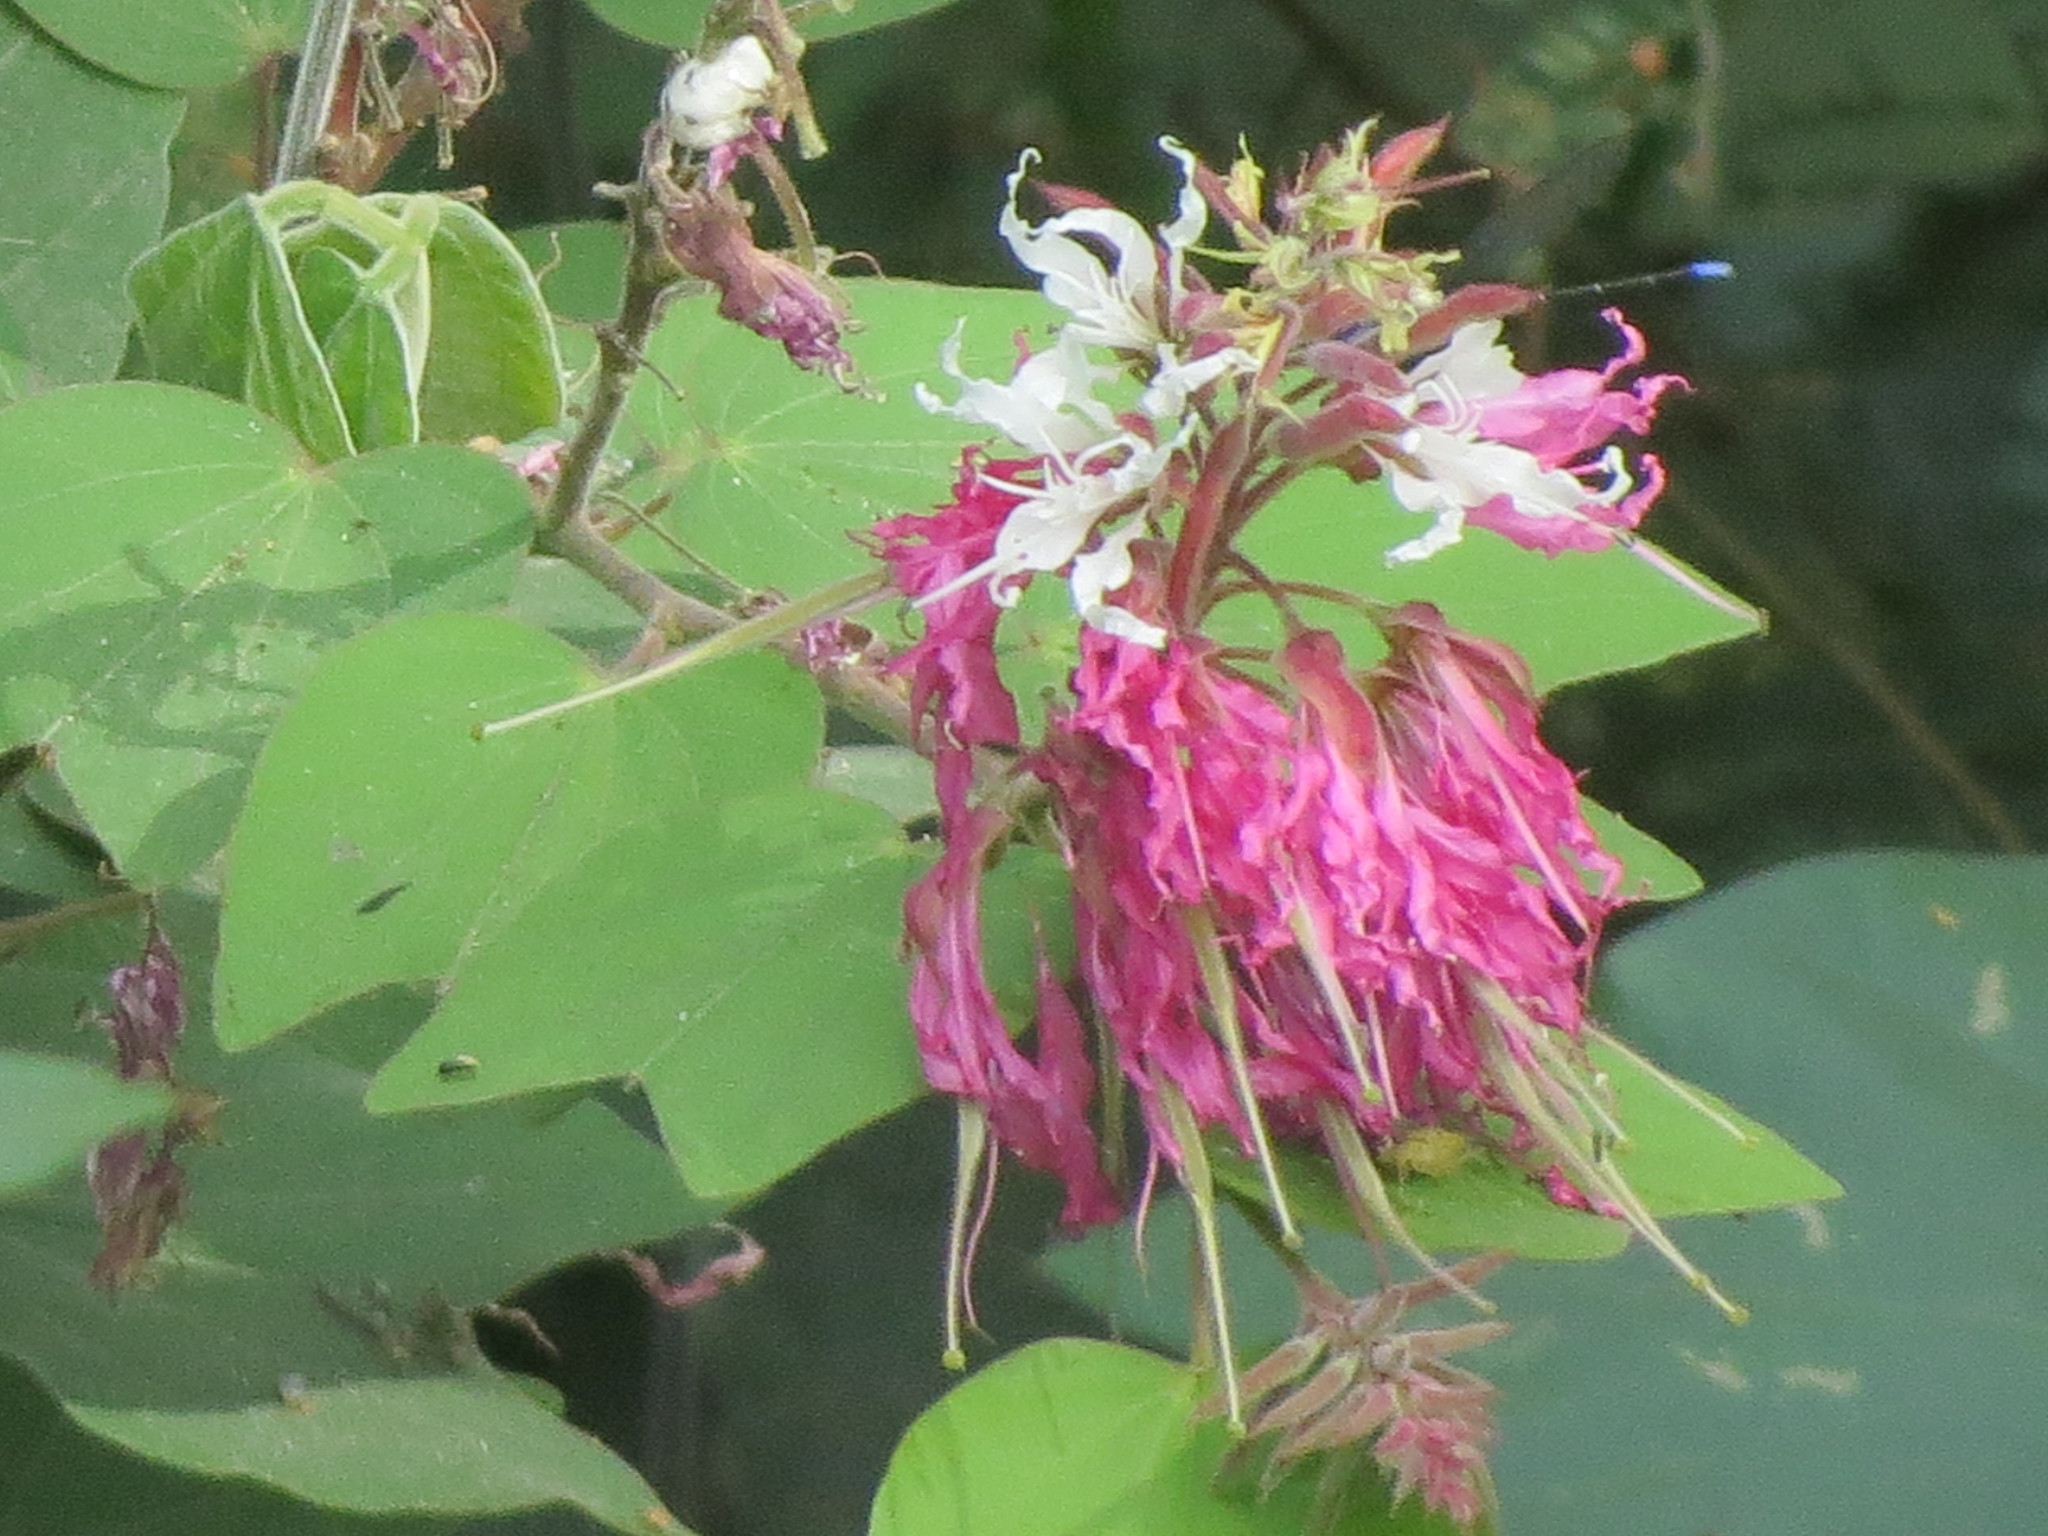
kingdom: Plantae
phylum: Tracheophyta
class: Magnoliopsida
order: Fabales
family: Fabaceae
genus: Bauhinia
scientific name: Bauhinia divaricata
